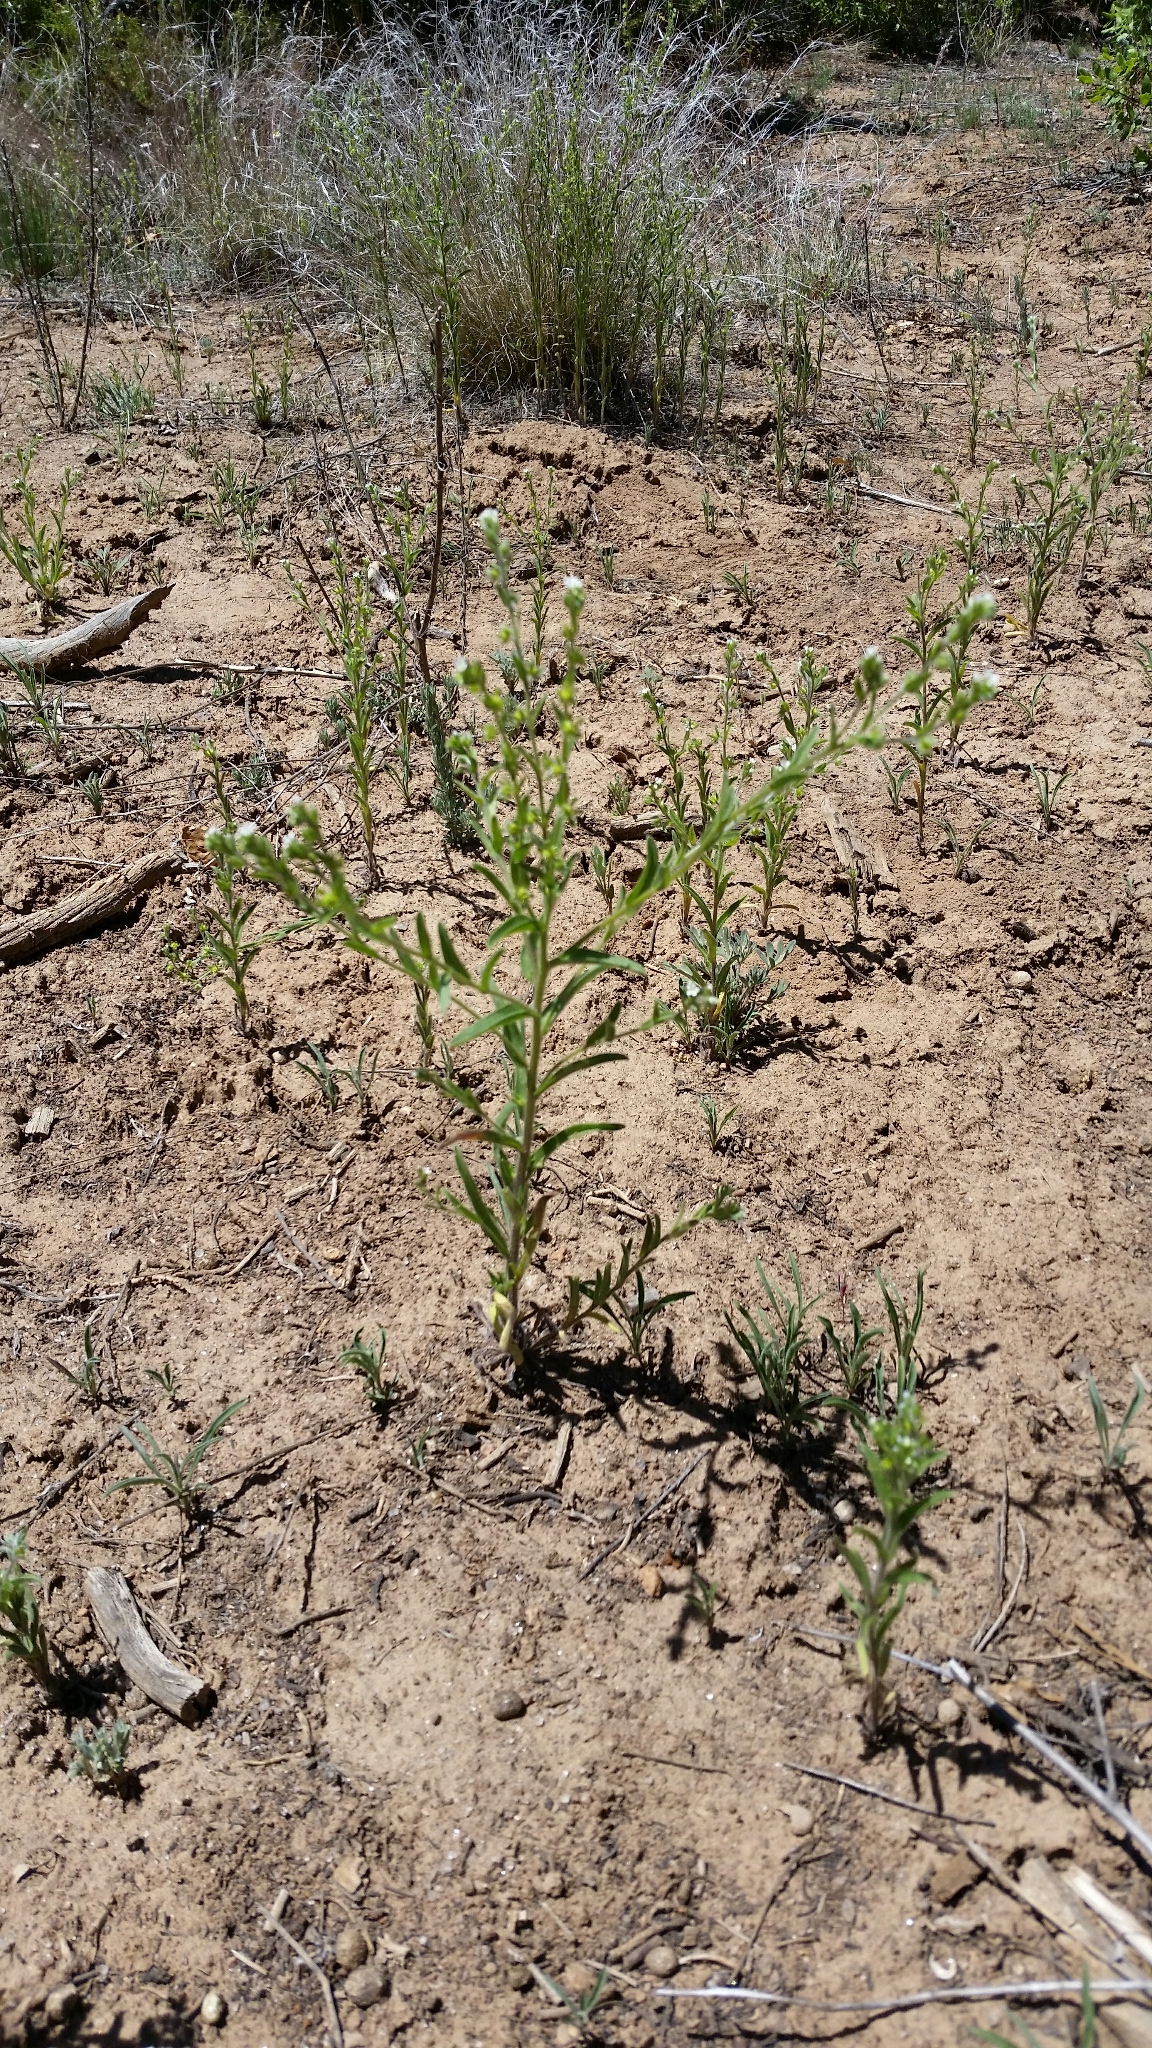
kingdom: Plantae
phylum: Tracheophyta
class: Magnoliopsida
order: Boraginales
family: Boraginaceae
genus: Lappula
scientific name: Lappula occidentalis
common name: Western stickseed
